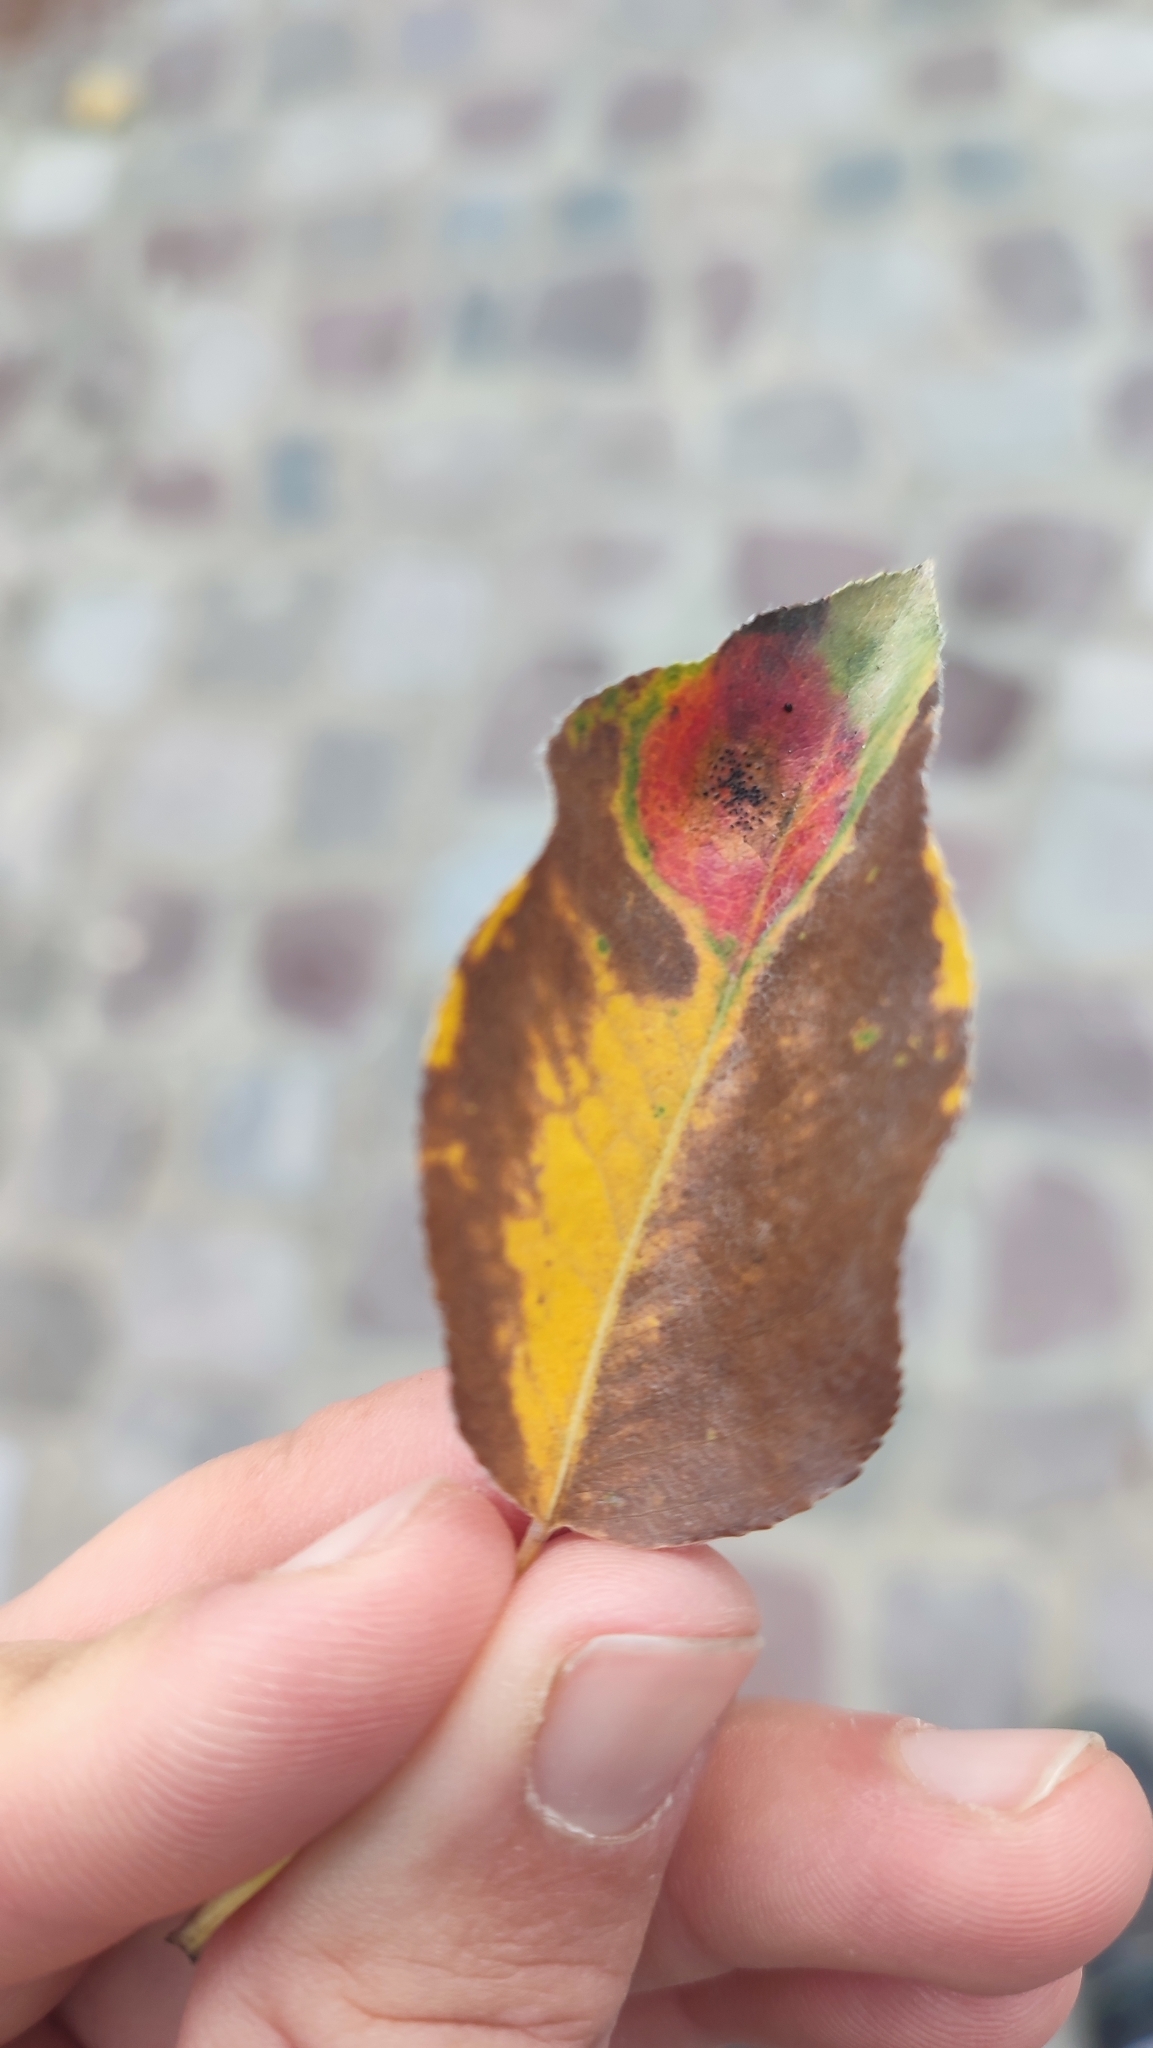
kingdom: Fungi
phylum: Basidiomycota
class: Pucciniomycetes
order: Pucciniales
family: Gymnosporangiaceae
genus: Gymnosporangium
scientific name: Gymnosporangium sabinae
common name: Pear trellis rust fungus
